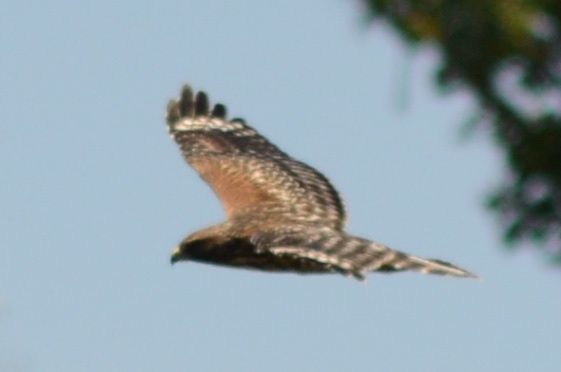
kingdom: Animalia
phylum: Chordata
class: Aves
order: Accipitriformes
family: Accipitridae
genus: Buteo
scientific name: Buteo lineatus
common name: Red-shouldered hawk
